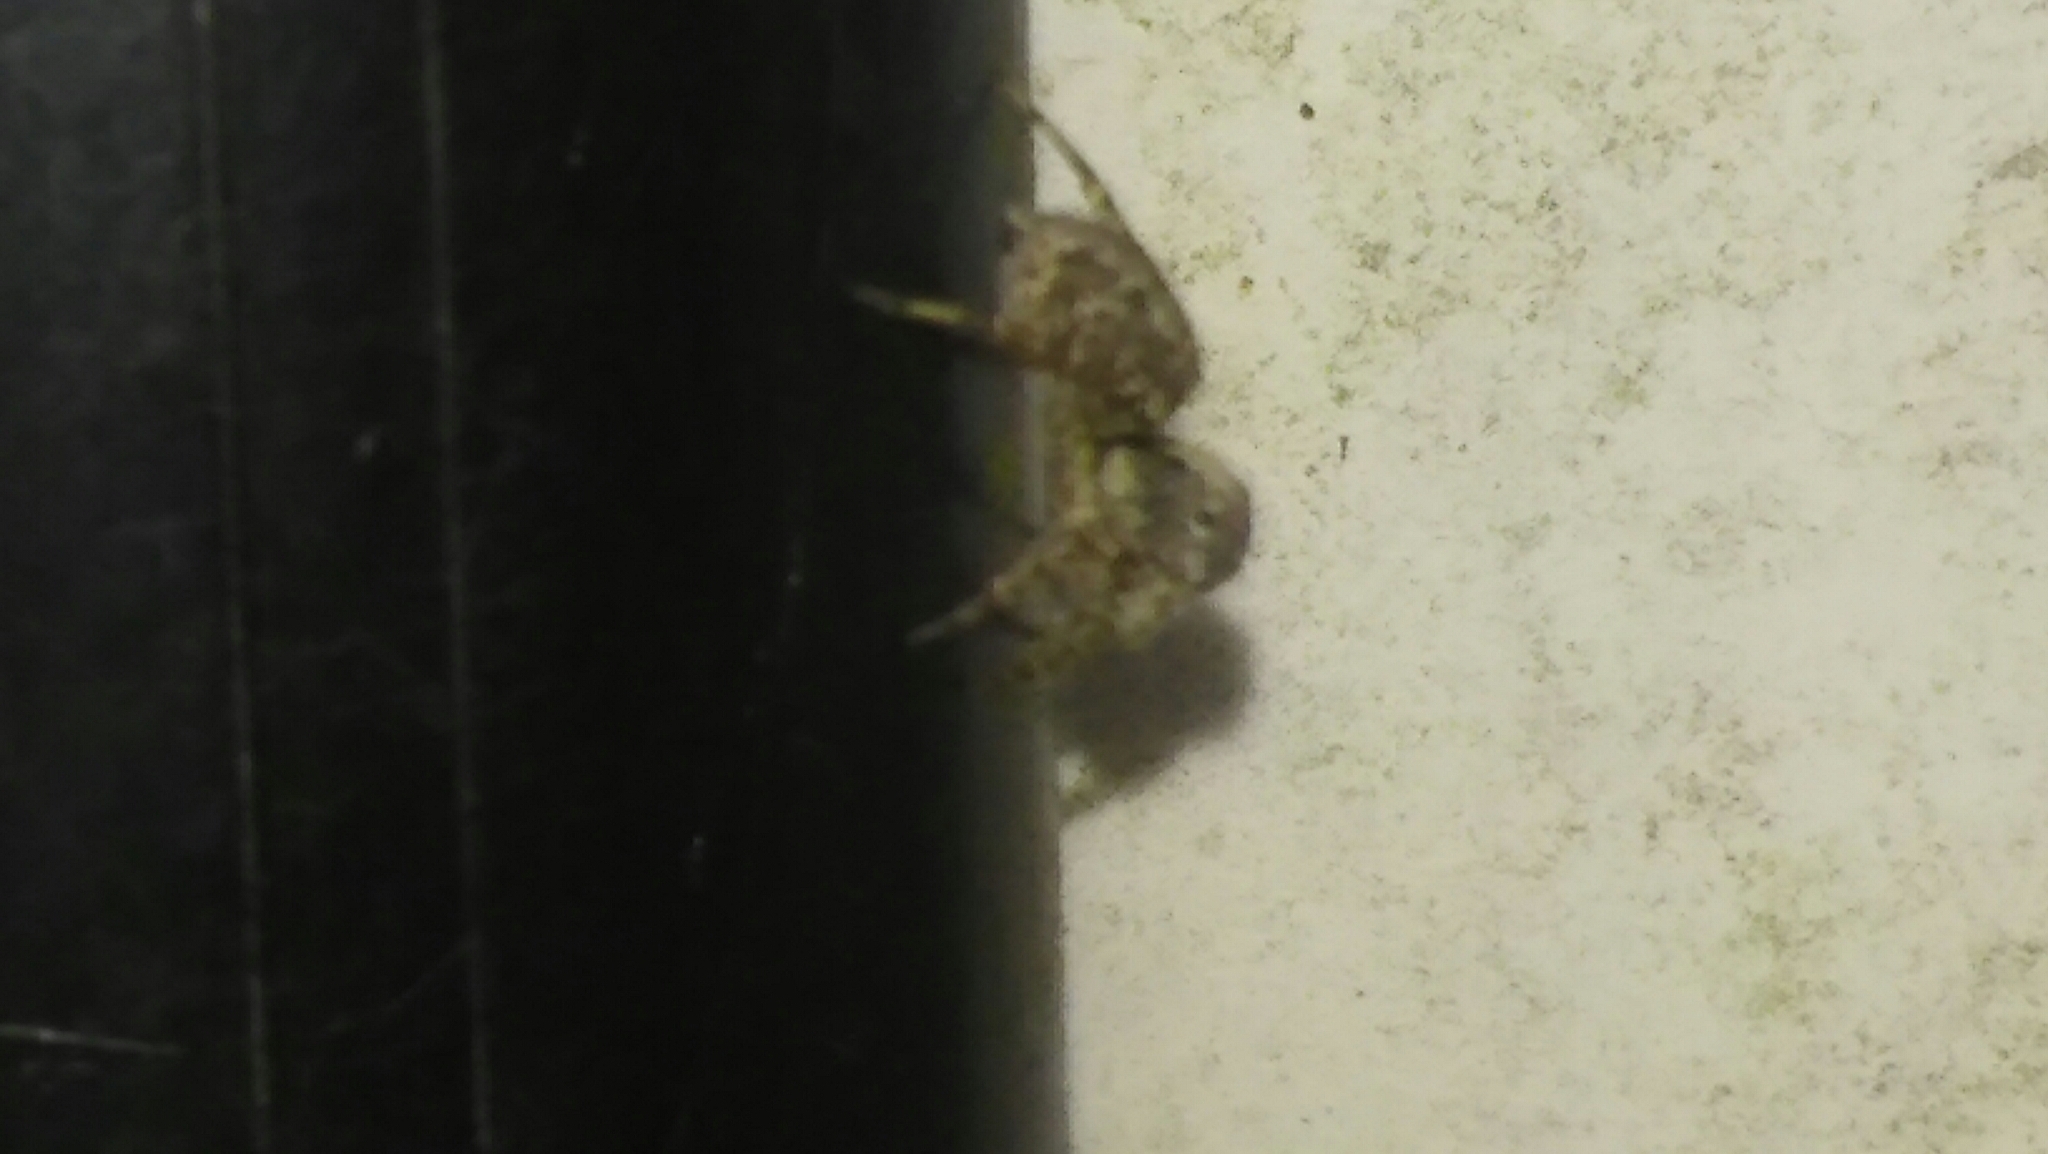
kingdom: Animalia
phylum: Arthropoda
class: Arachnida
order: Araneae
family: Salticidae
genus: Saitis
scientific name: Saitis variegatus
